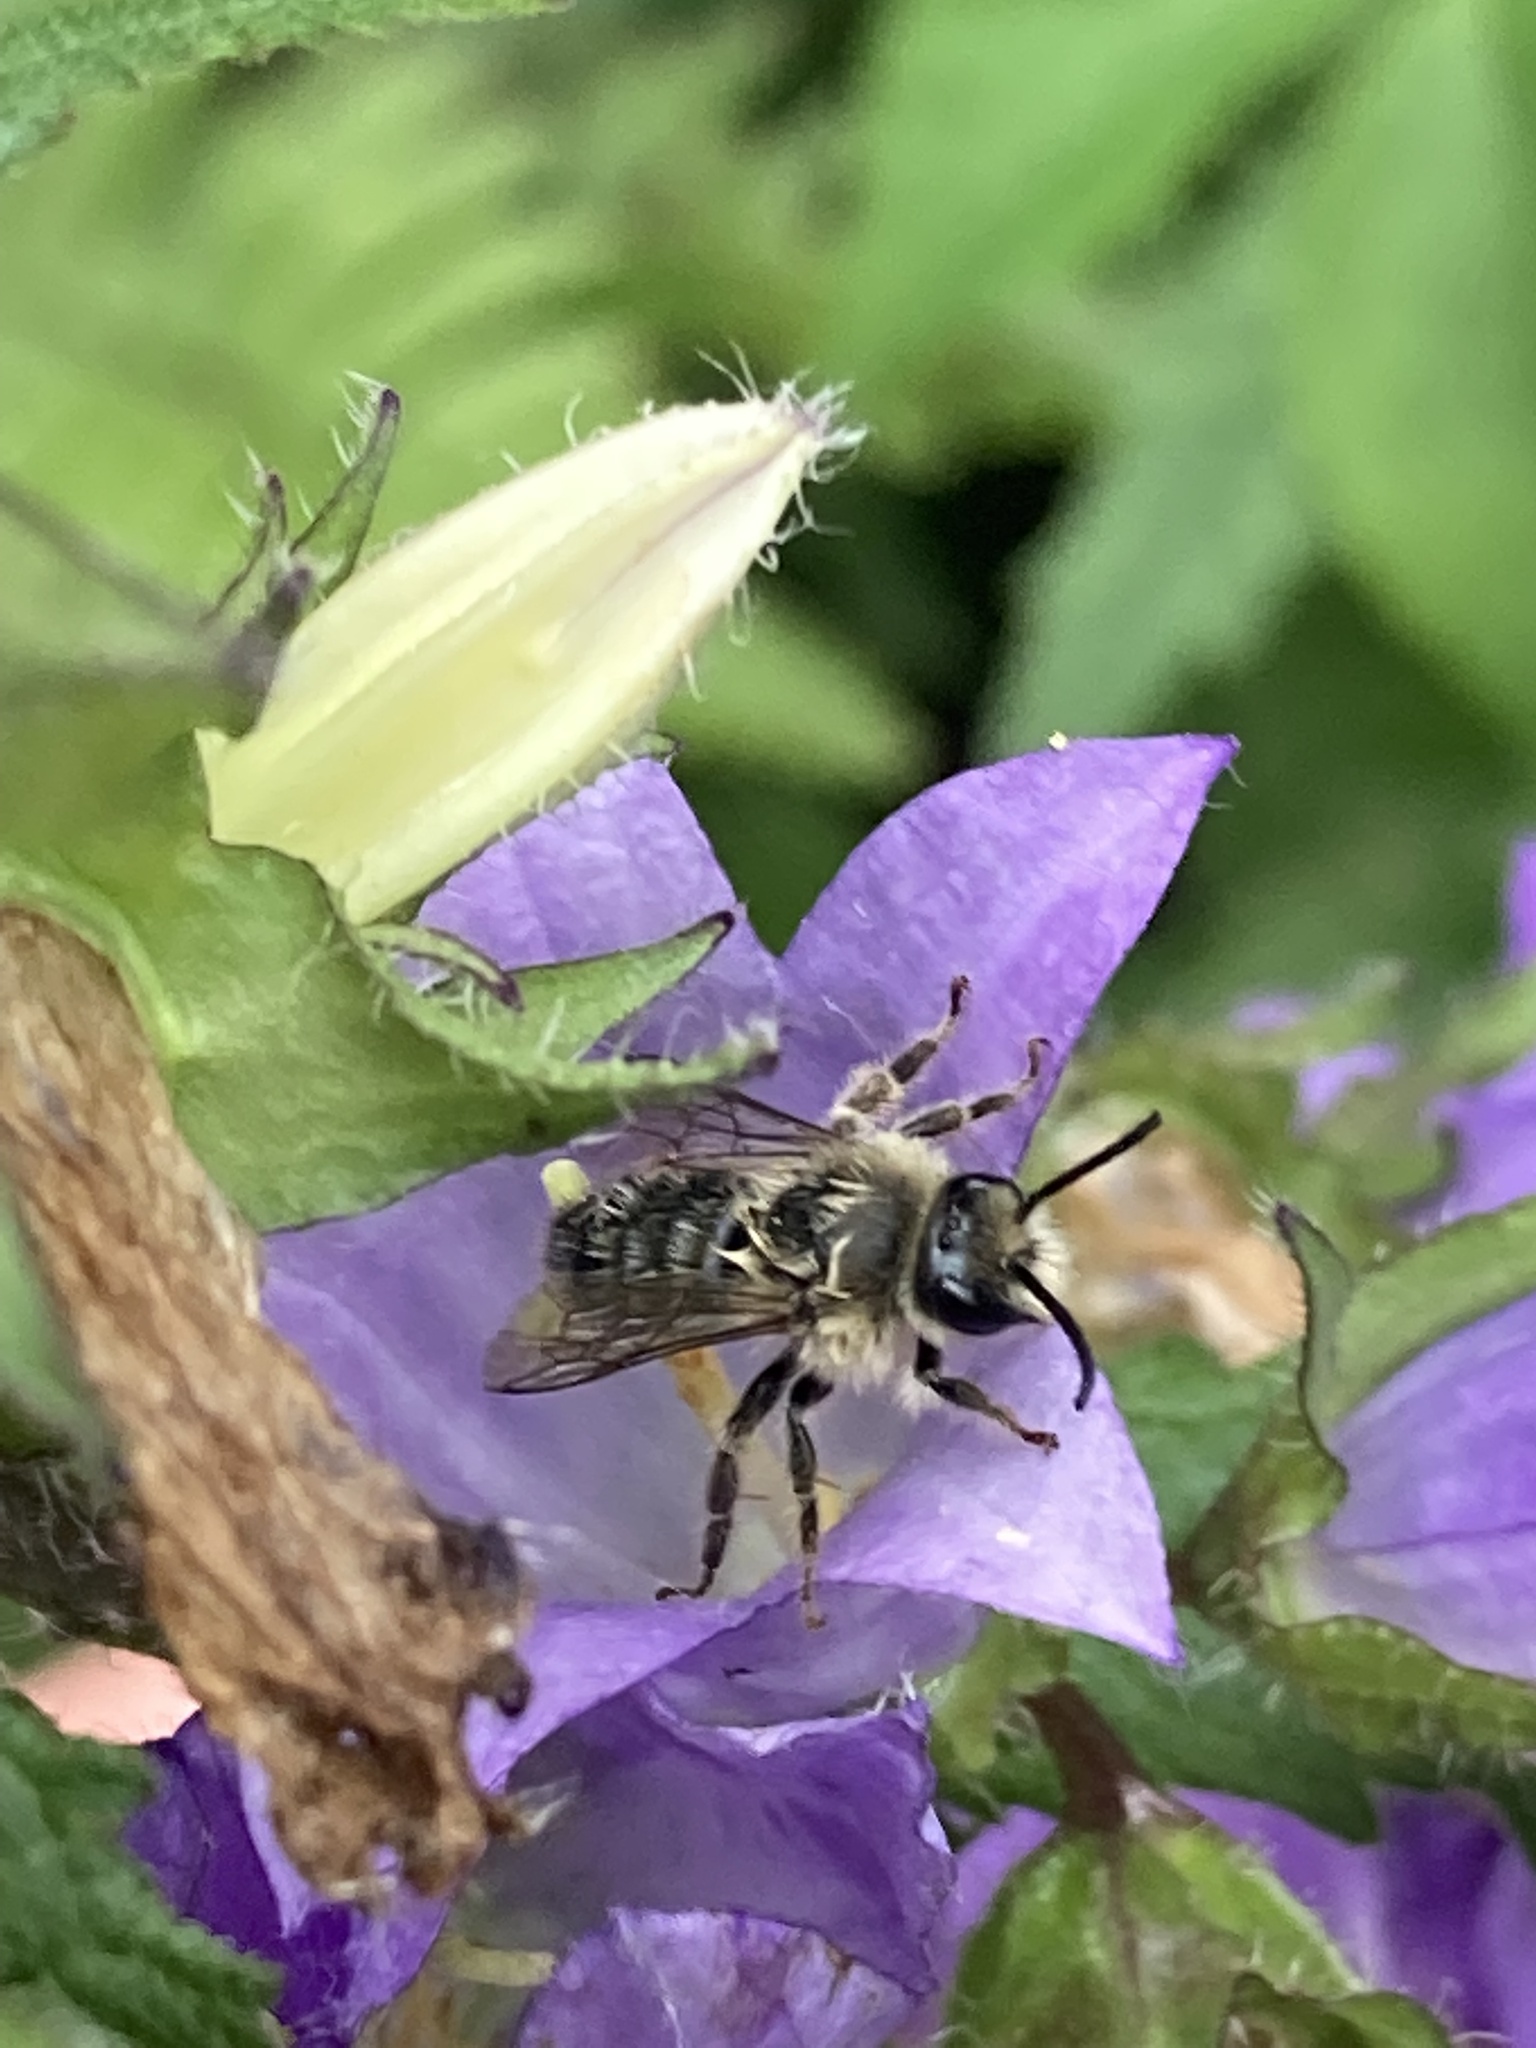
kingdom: Animalia
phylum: Arthropoda
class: Insecta
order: Hymenoptera
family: Melittidae
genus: Melitta
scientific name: Melitta haemorrhoidalis
